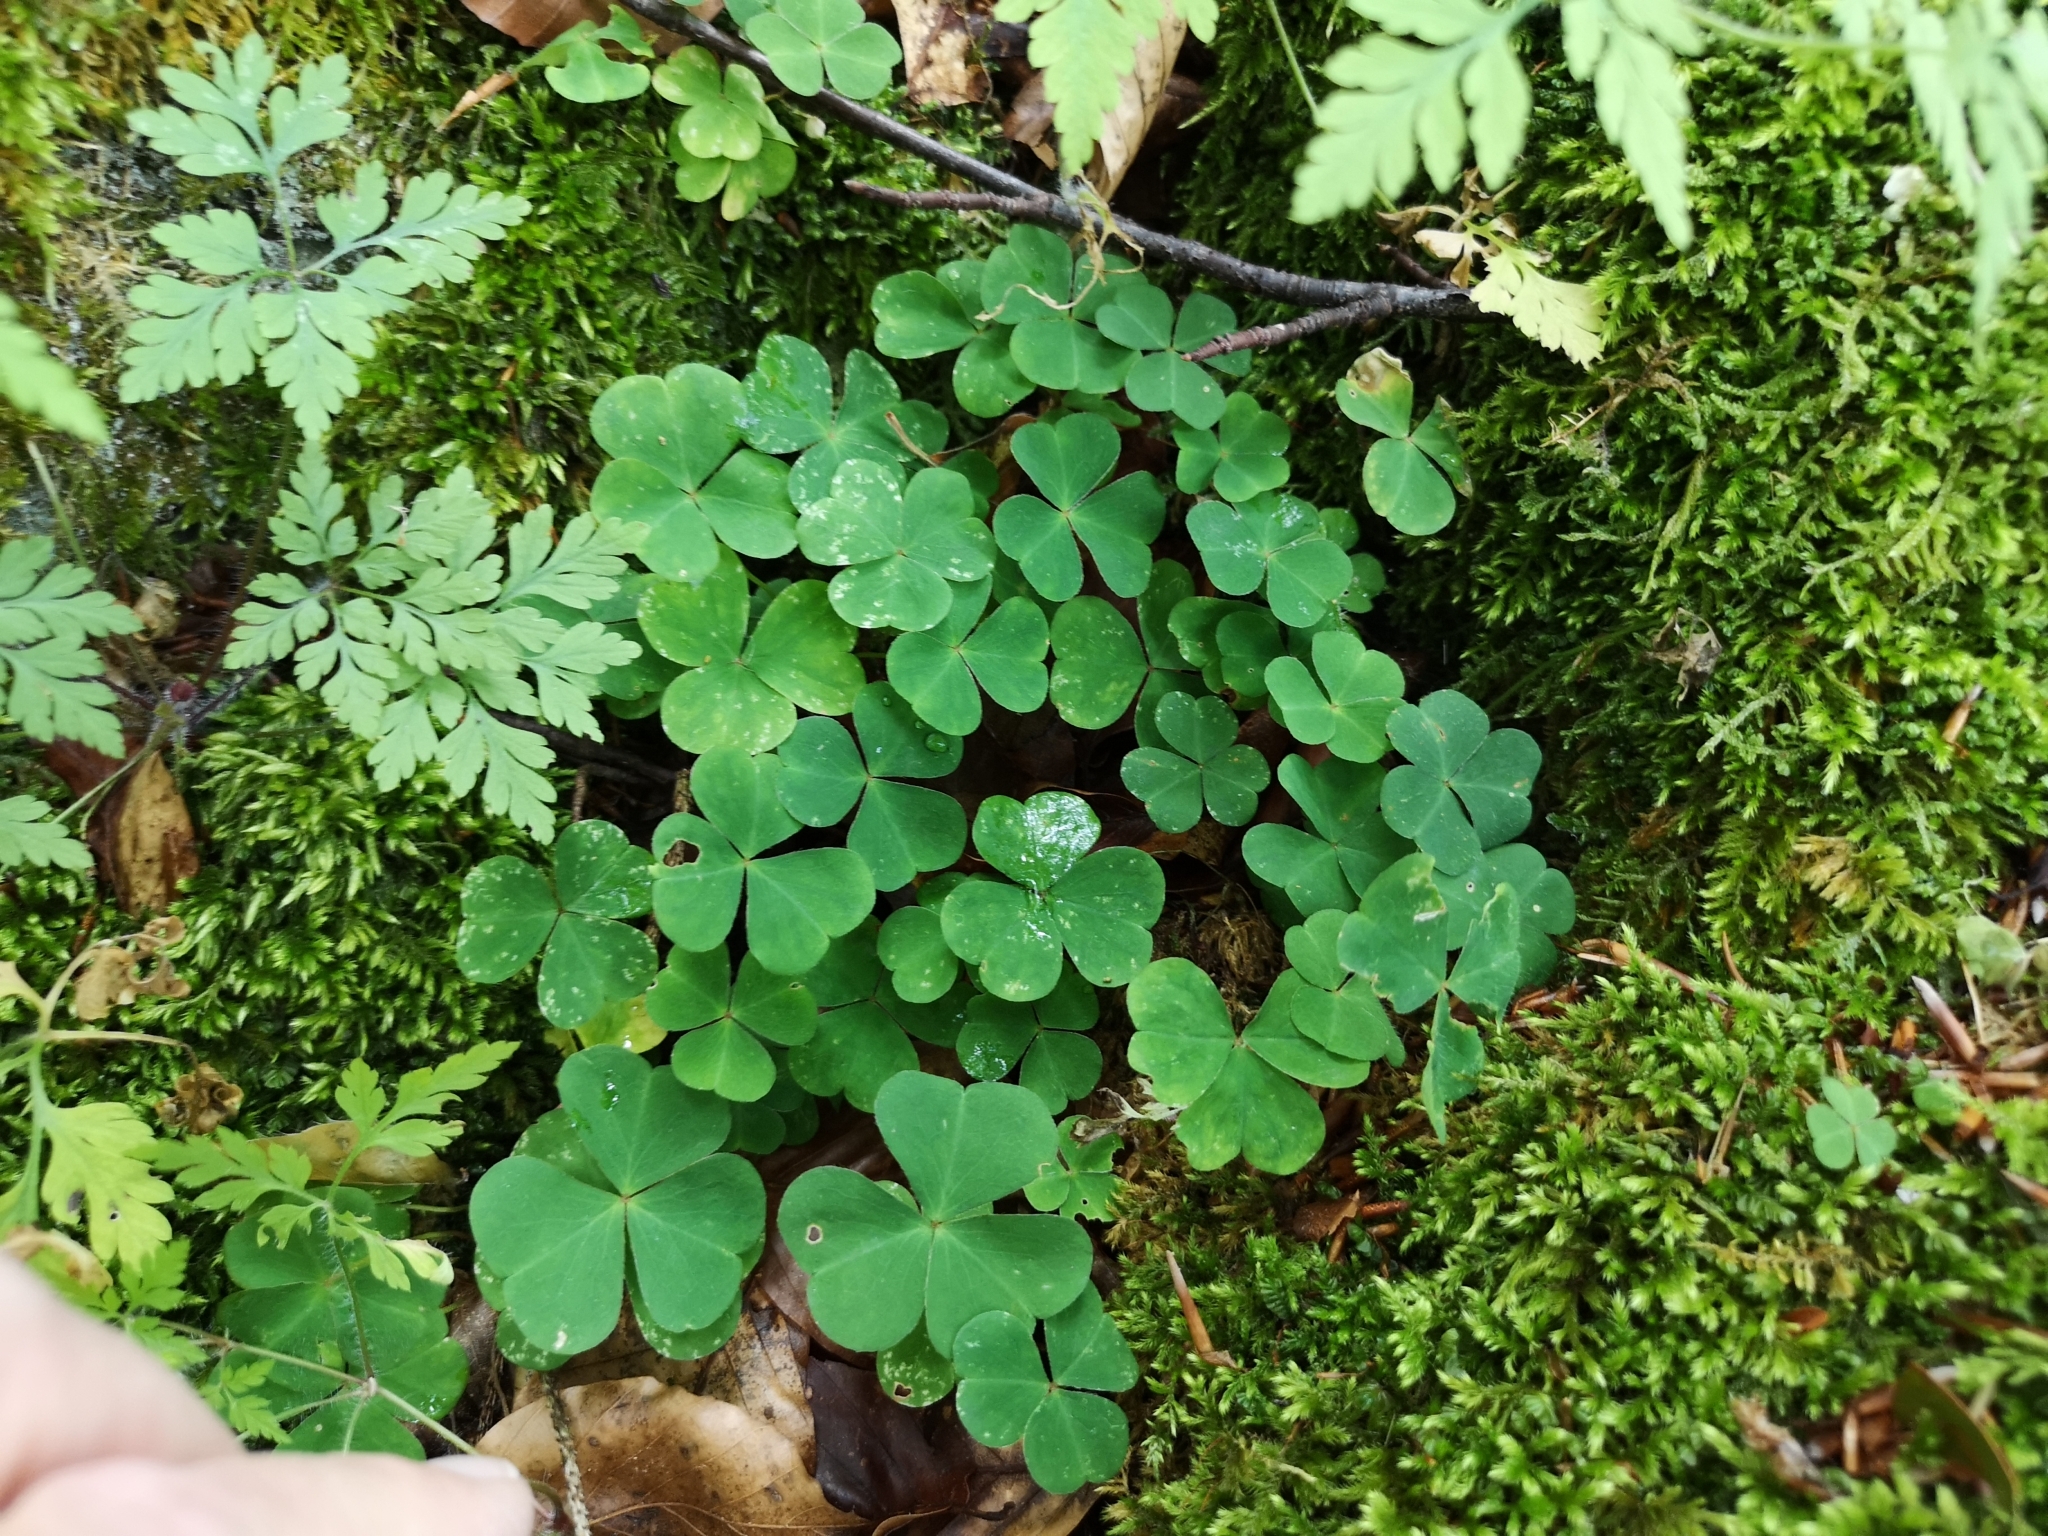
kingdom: Plantae
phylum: Tracheophyta
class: Magnoliopsida
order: Oxalidales
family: Oxalidaceae
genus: Oxalis
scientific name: Oxalis acetosella
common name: Wood-sorrel
